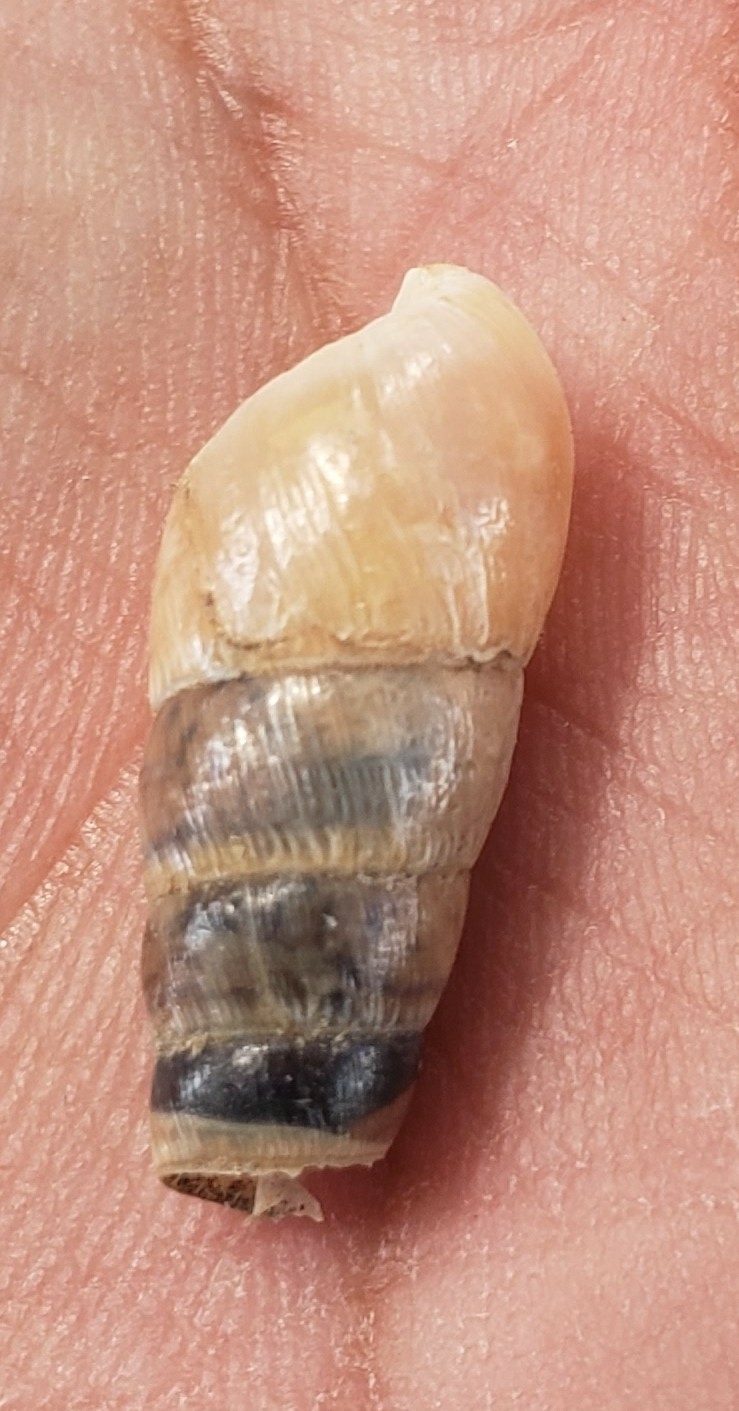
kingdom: Animalia
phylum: Mollusca
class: Gastropoda
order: Stylommatophora
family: Achatinidae
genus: Rumina
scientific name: Rumina decollata
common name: Decollate snail
